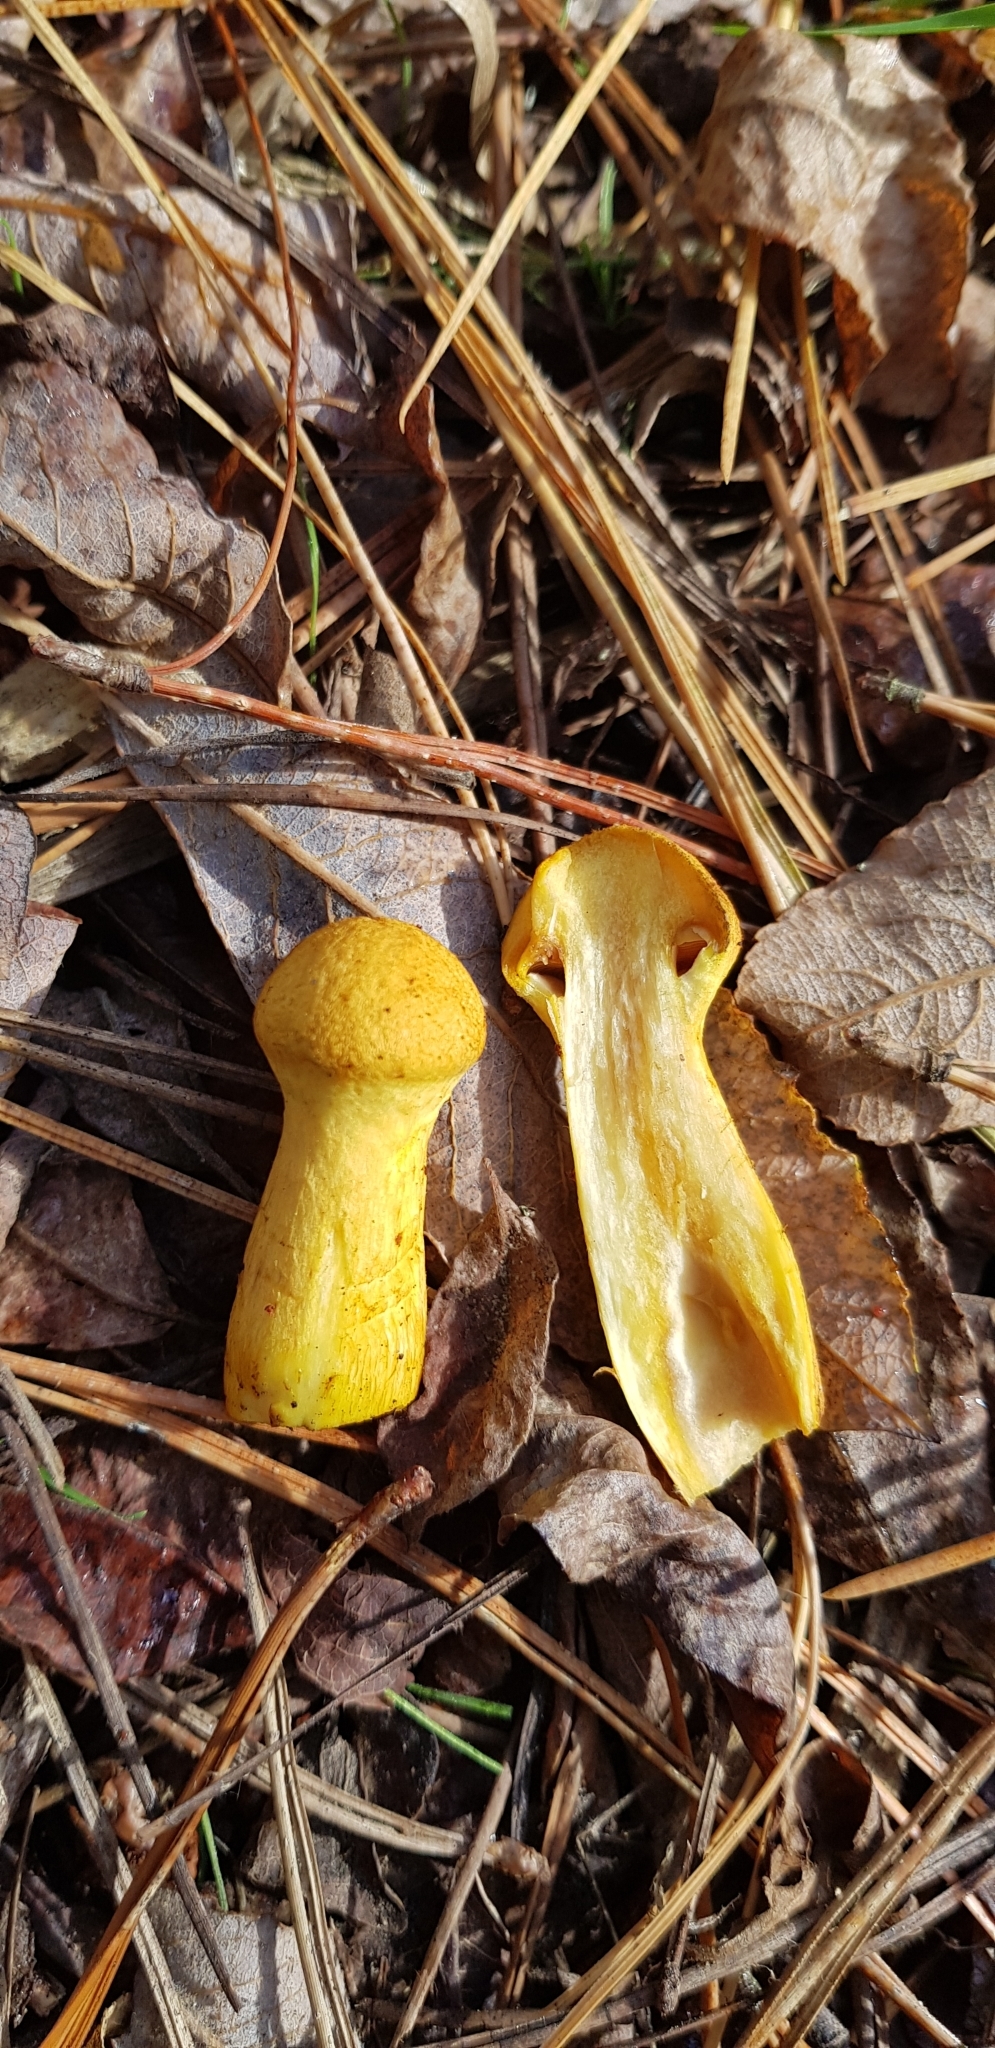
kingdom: Fungi
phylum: Basidiomycota
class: Agaricomycetes
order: Agaricales
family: Hymenogastraceae
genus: Gymnopilus
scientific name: Gymnopilus junonius
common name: Spectacular rustgill
